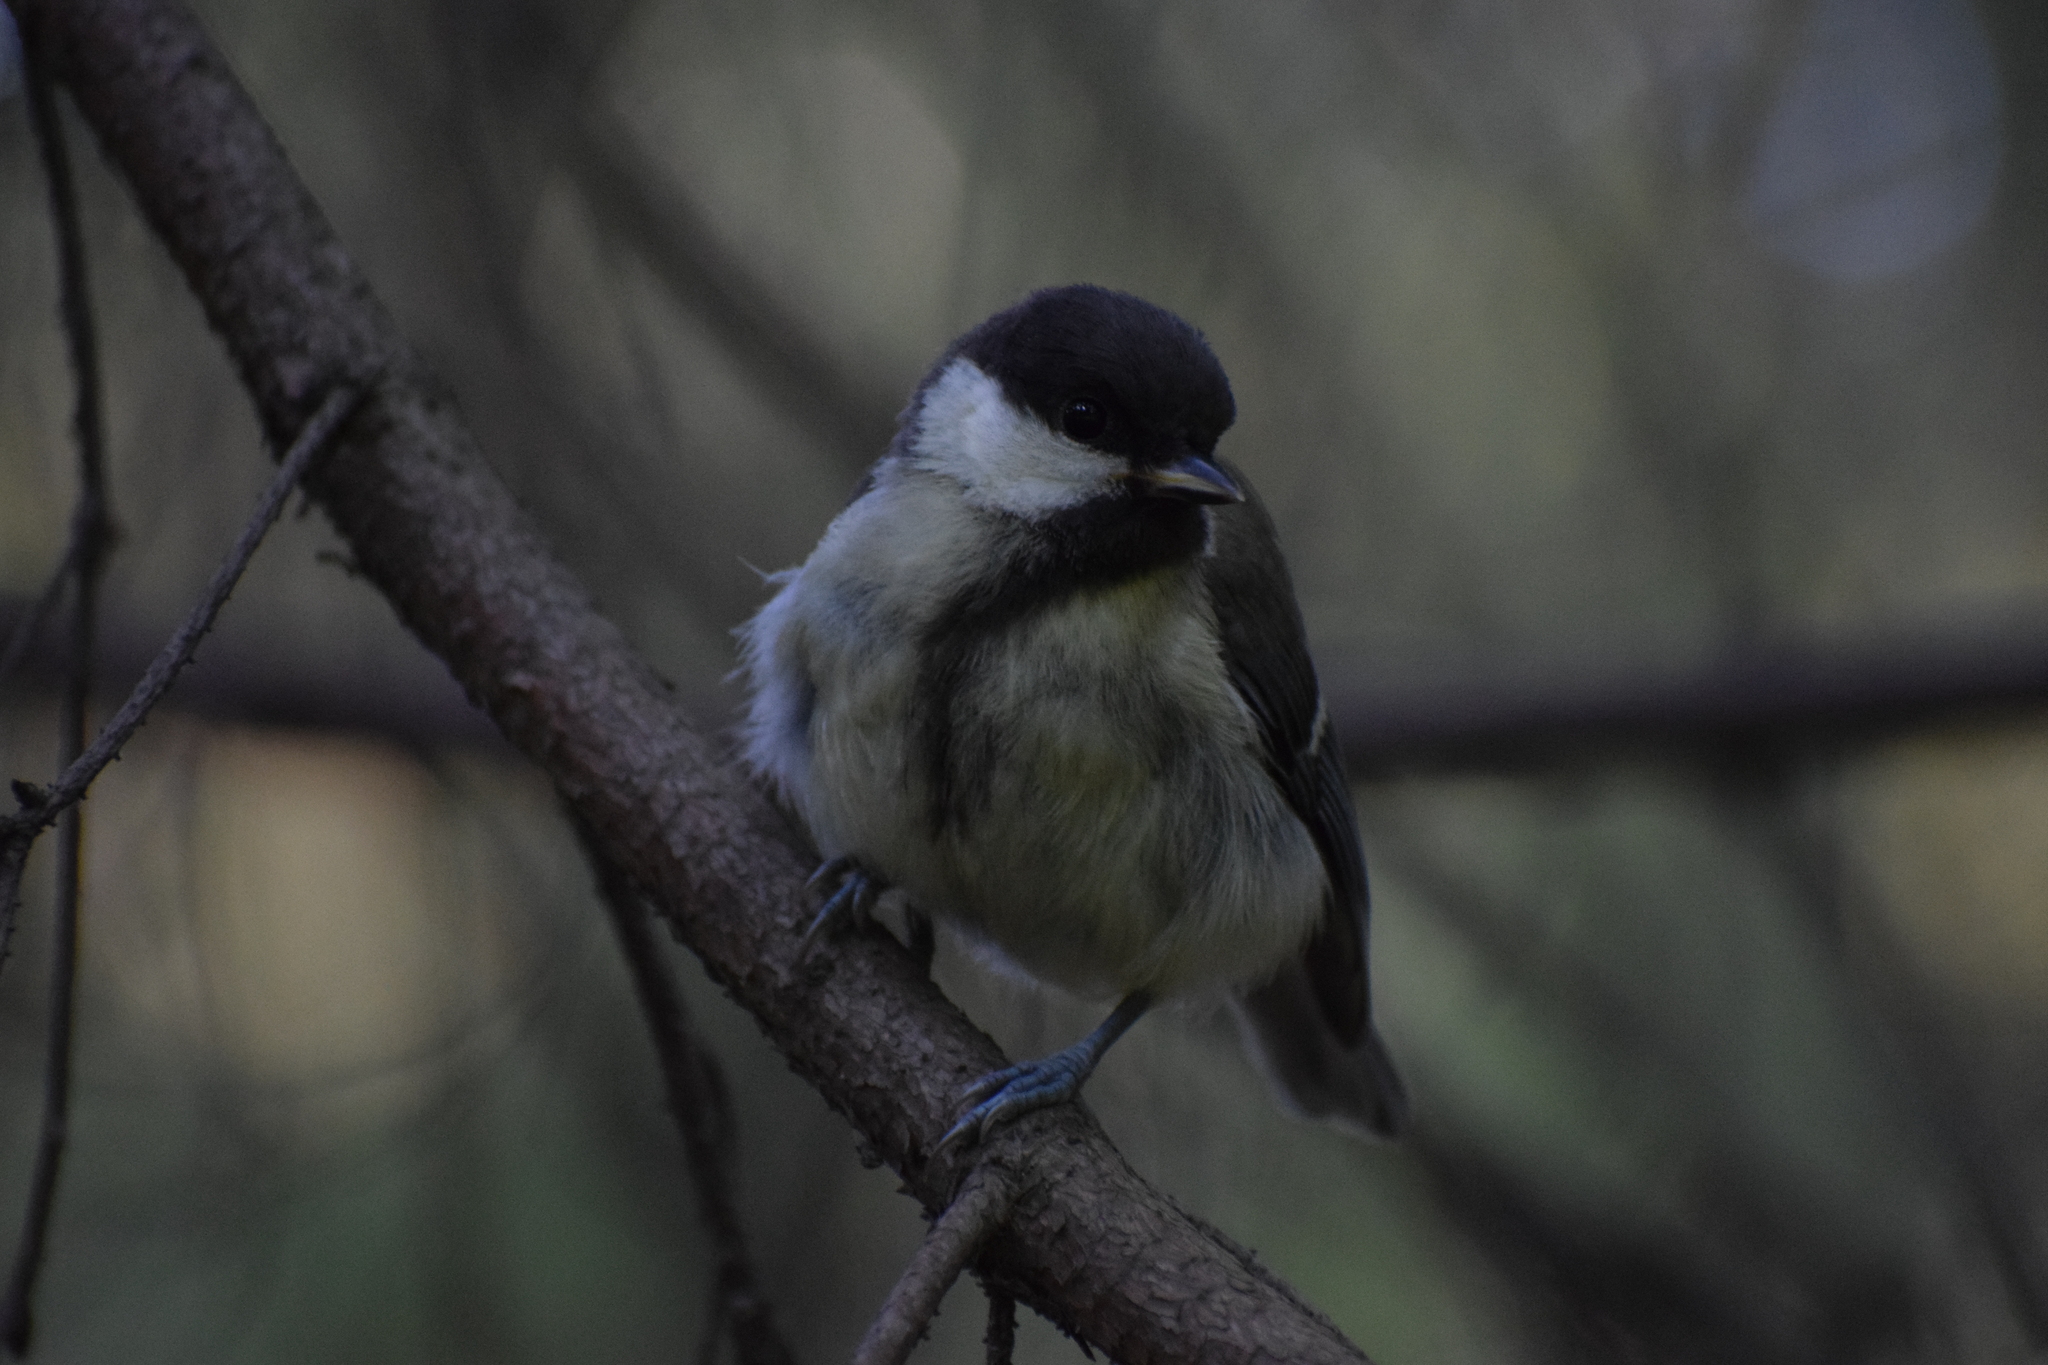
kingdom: Animalia
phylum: Chordata
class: Aves
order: Passeriformes
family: Paridae
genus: Parus
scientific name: Parus major
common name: Great tit
